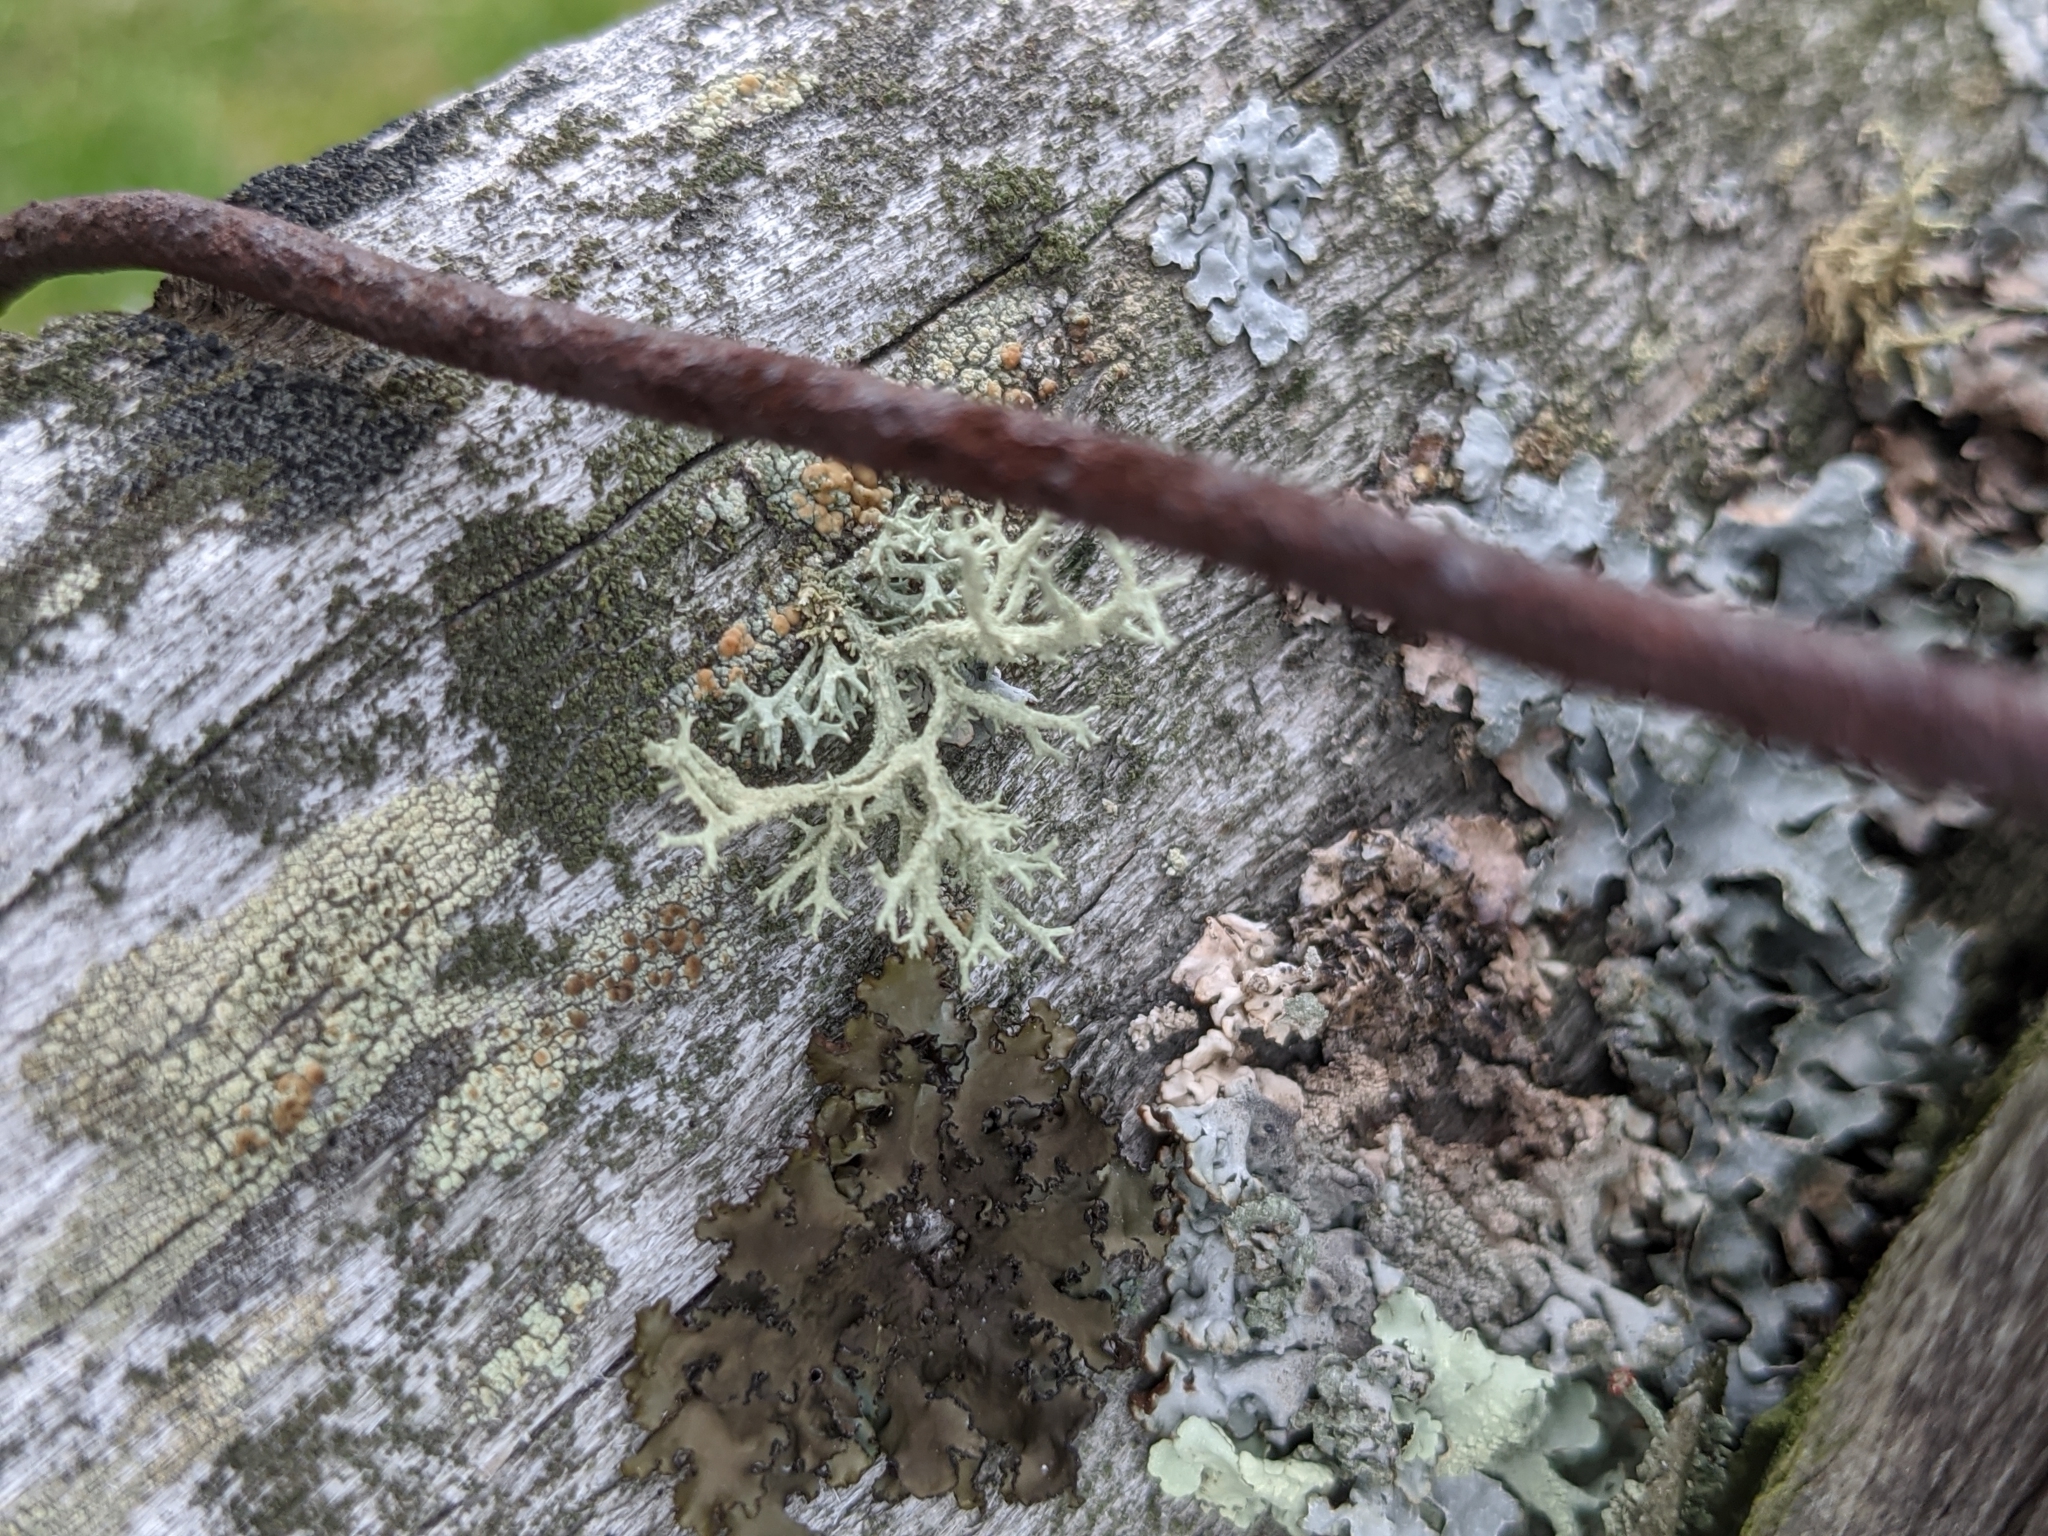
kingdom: Fungi
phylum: Ascomycota
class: Lecanoromycetes
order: Lecanorales
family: Parmeliaceae
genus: Evernia
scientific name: Evernia mesomorpha
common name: Boreal oak moss lichen
